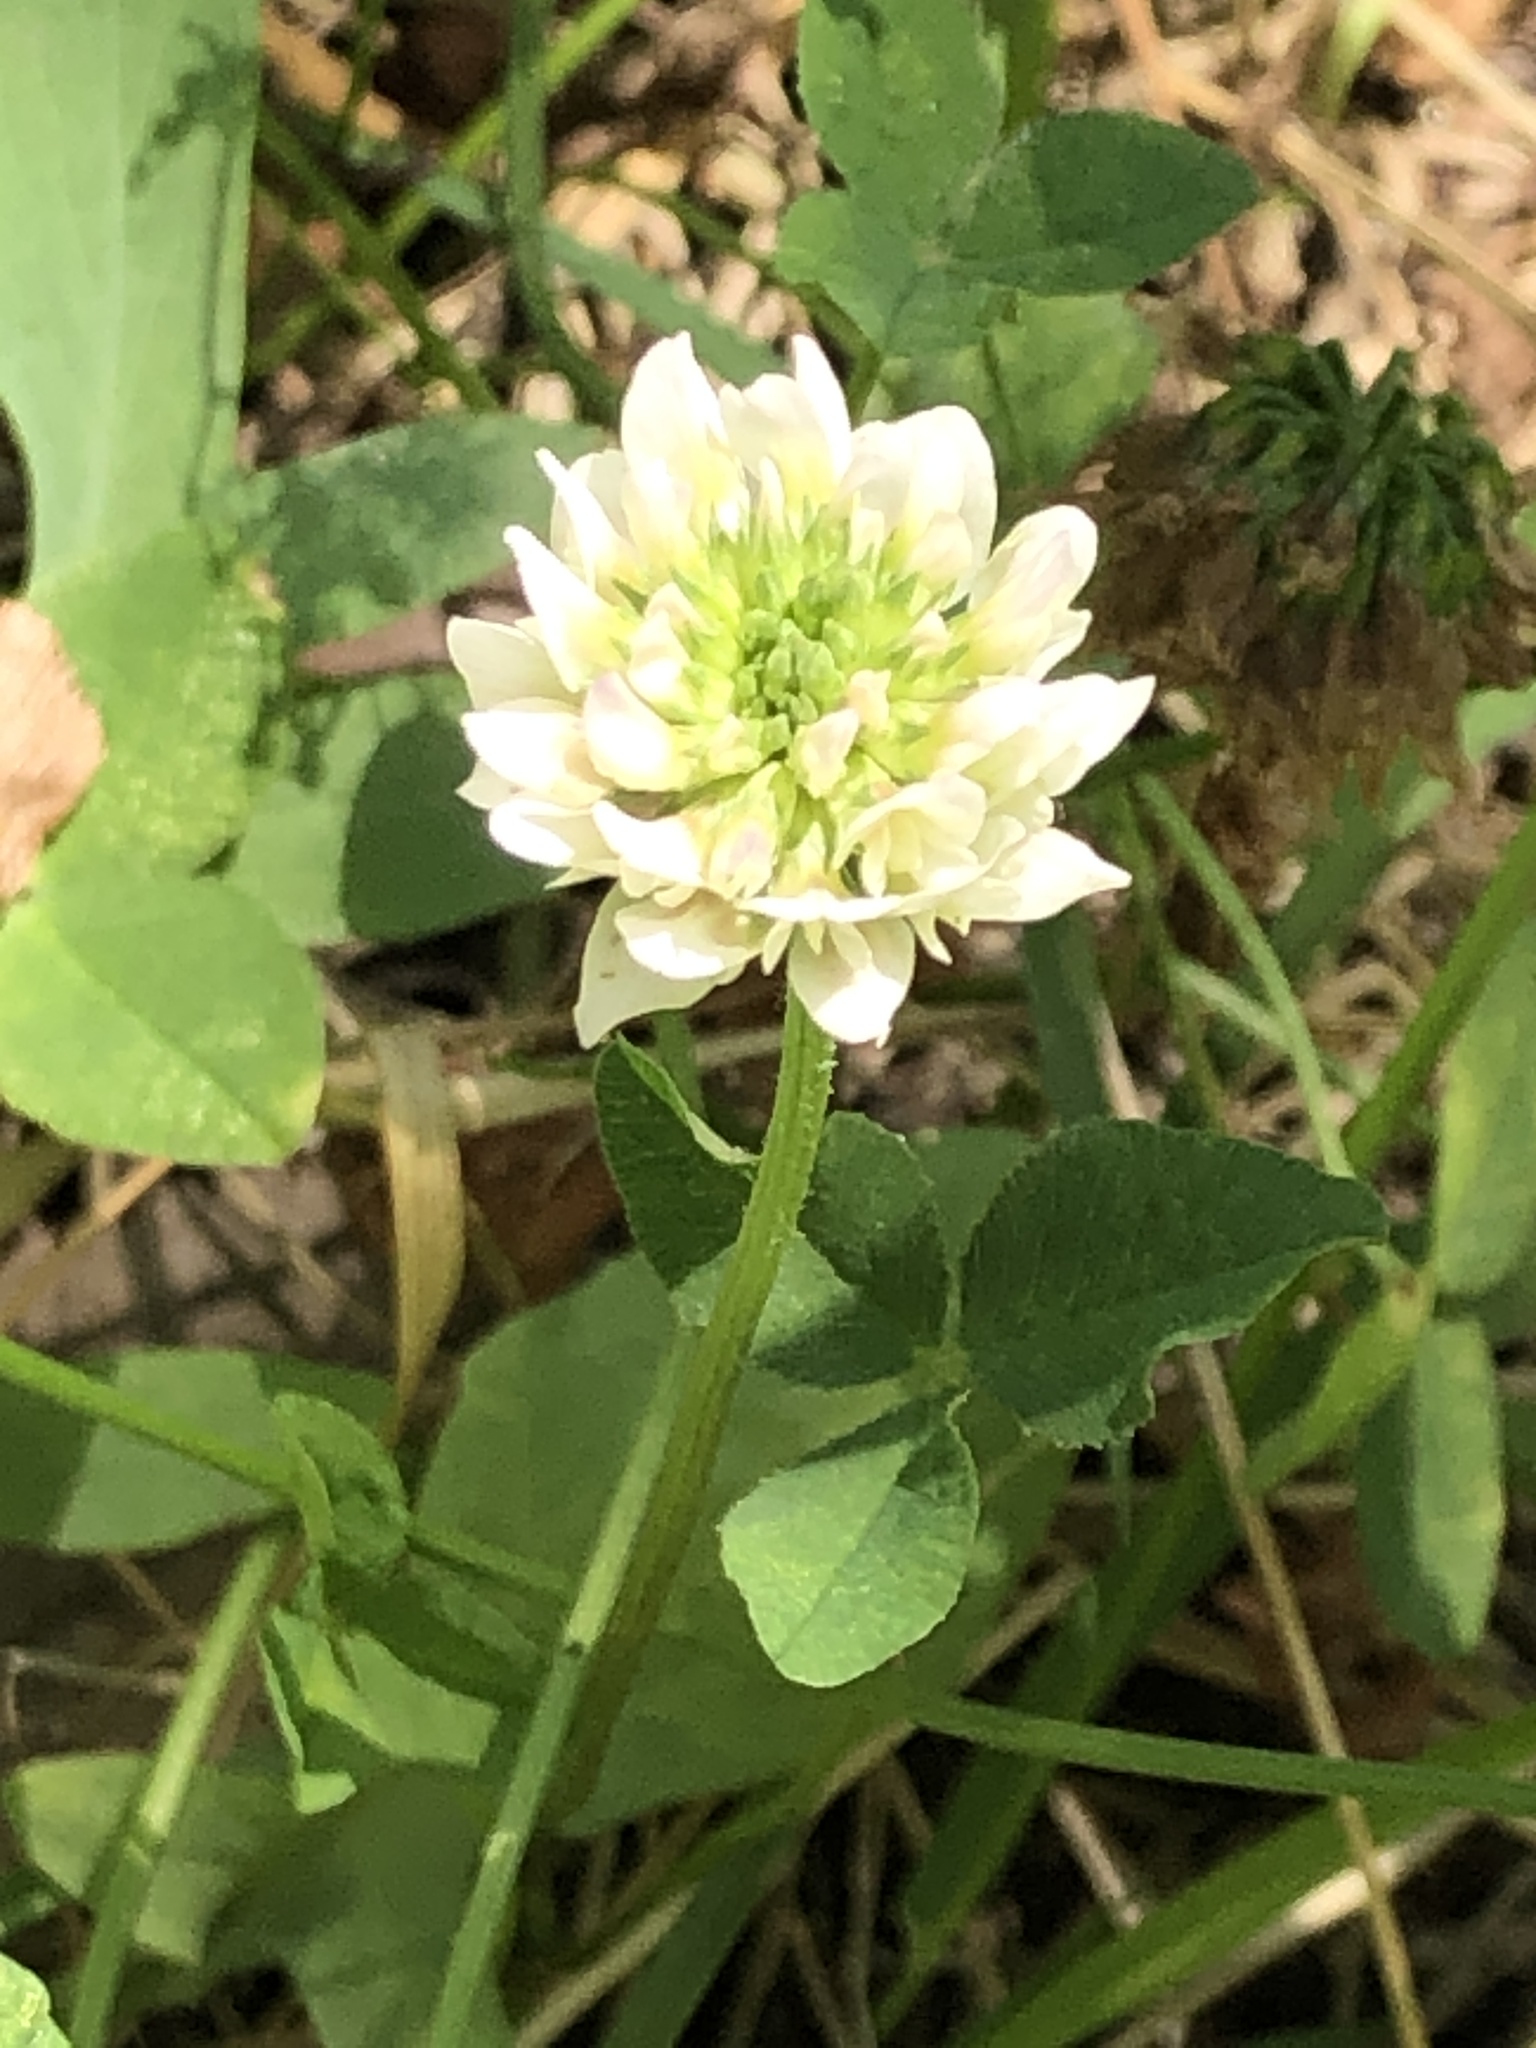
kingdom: Plantae
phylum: Tracheophyta
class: Magnoliopsida
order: Fabales
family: Fabaceae
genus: Trifolium
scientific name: Trifolium repens
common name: White clover
